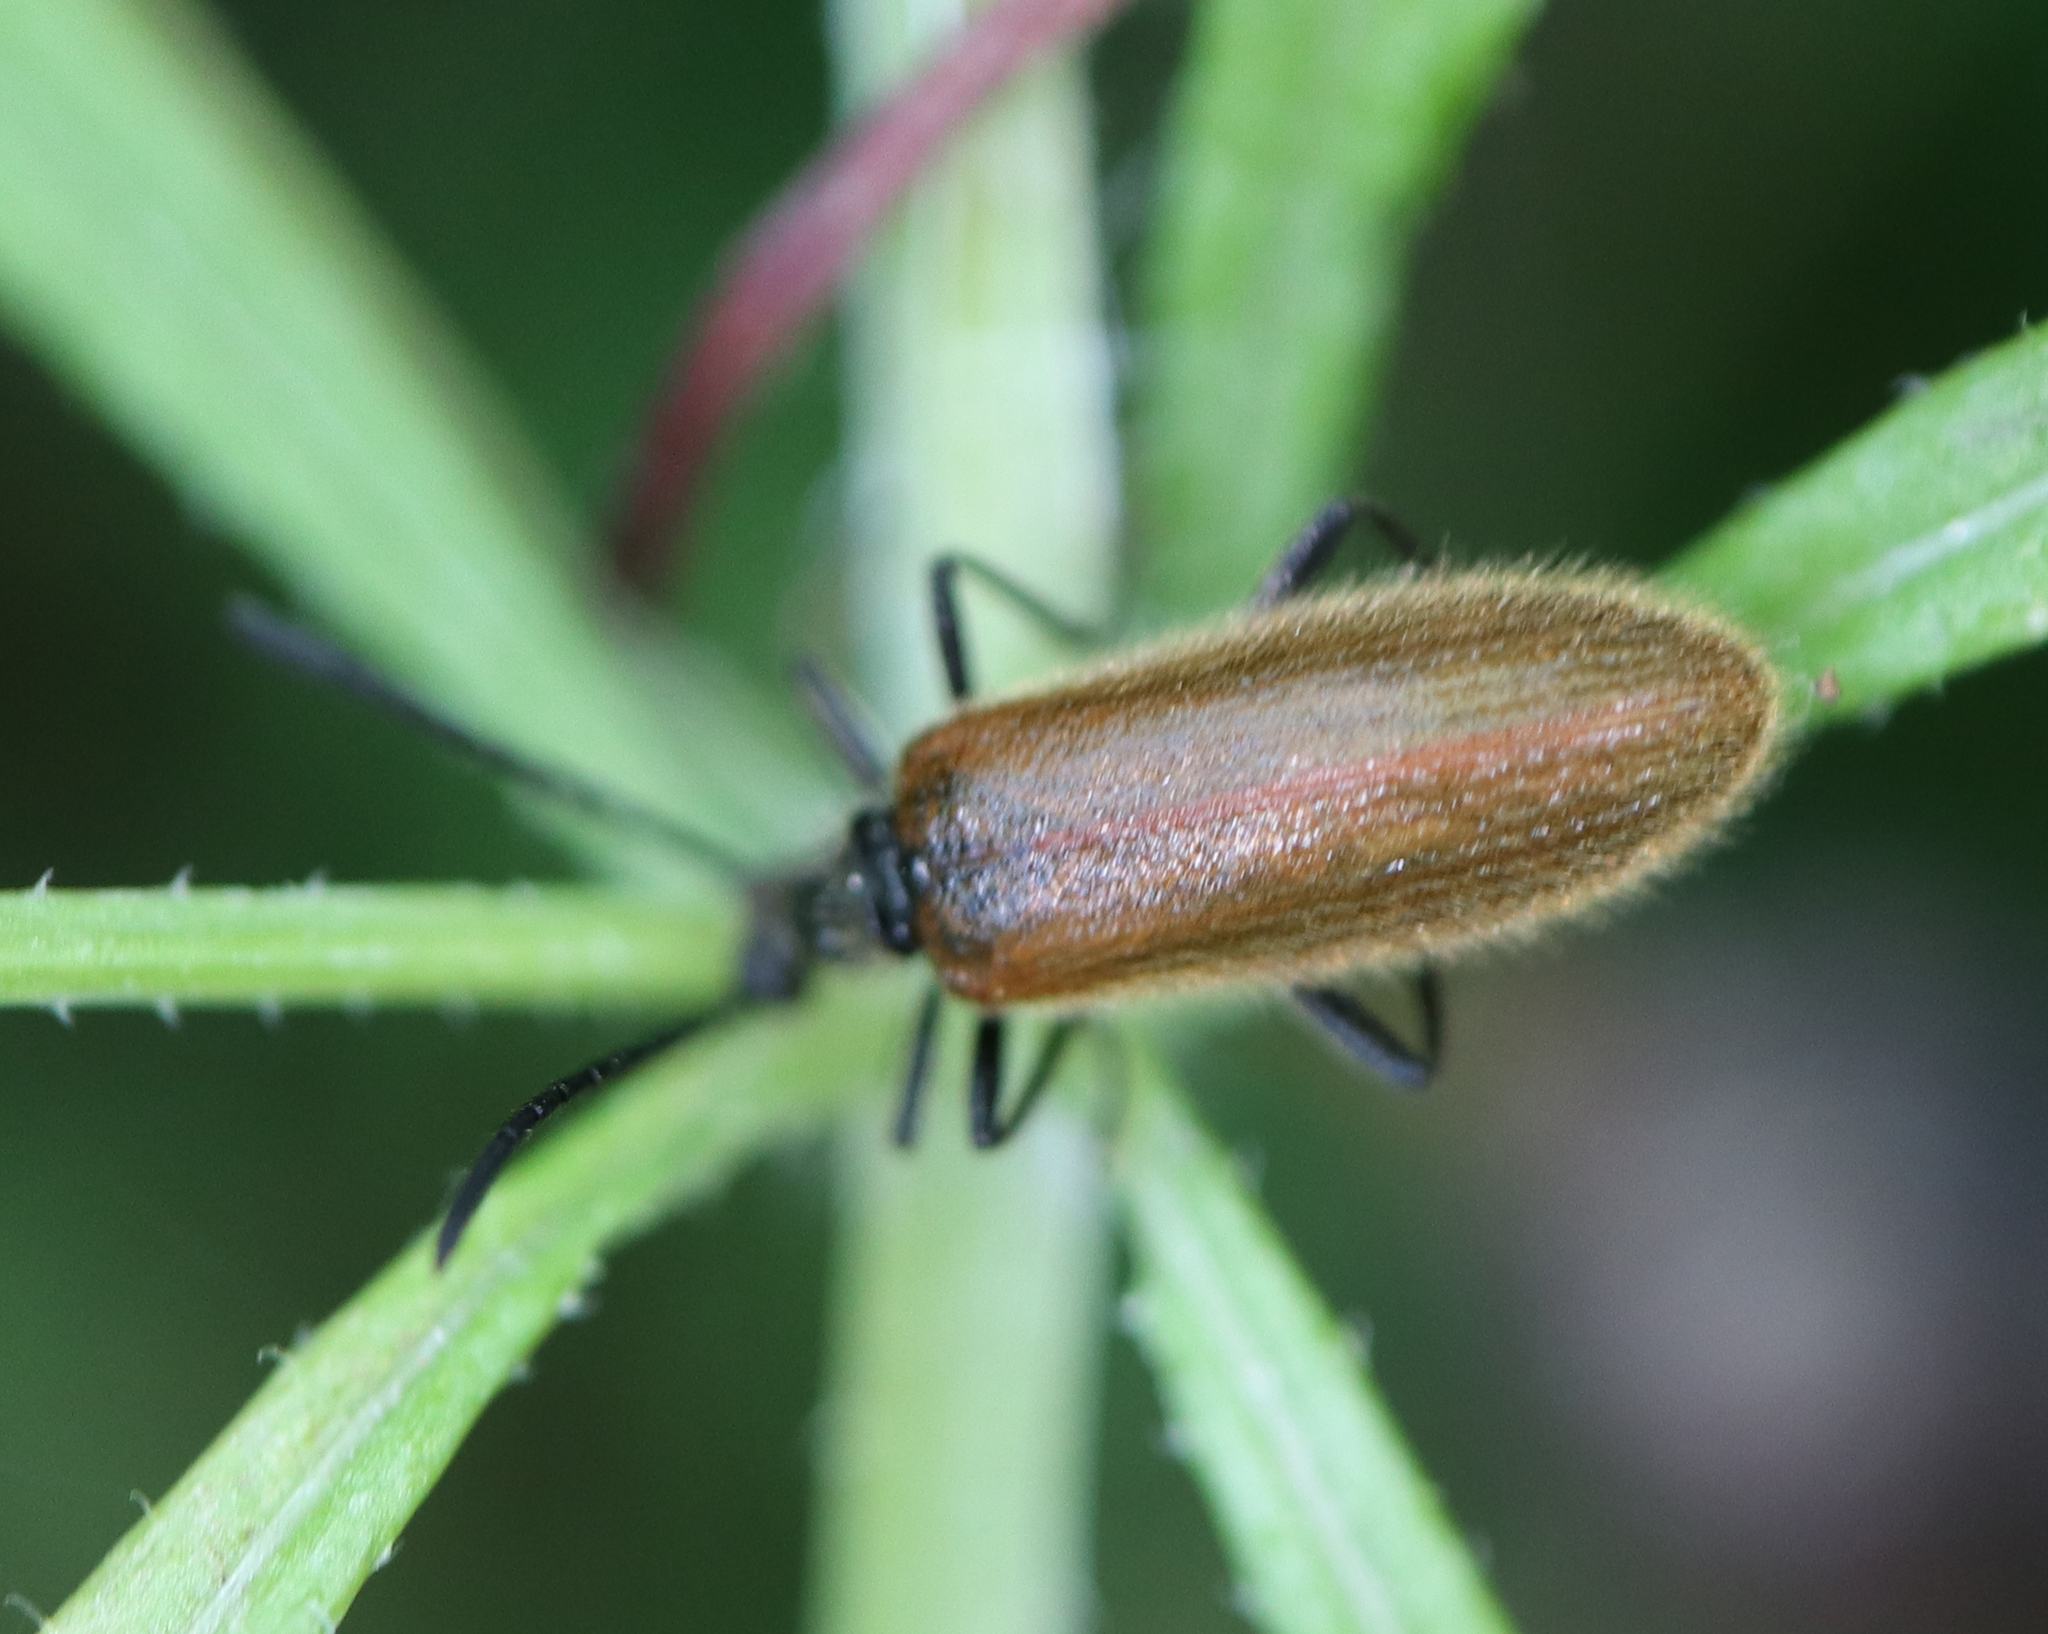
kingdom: Animalia
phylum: Arthropoda
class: Insecta
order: Coleoptera
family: Tenebrionidae
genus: Lagria
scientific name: Lagria hirta
